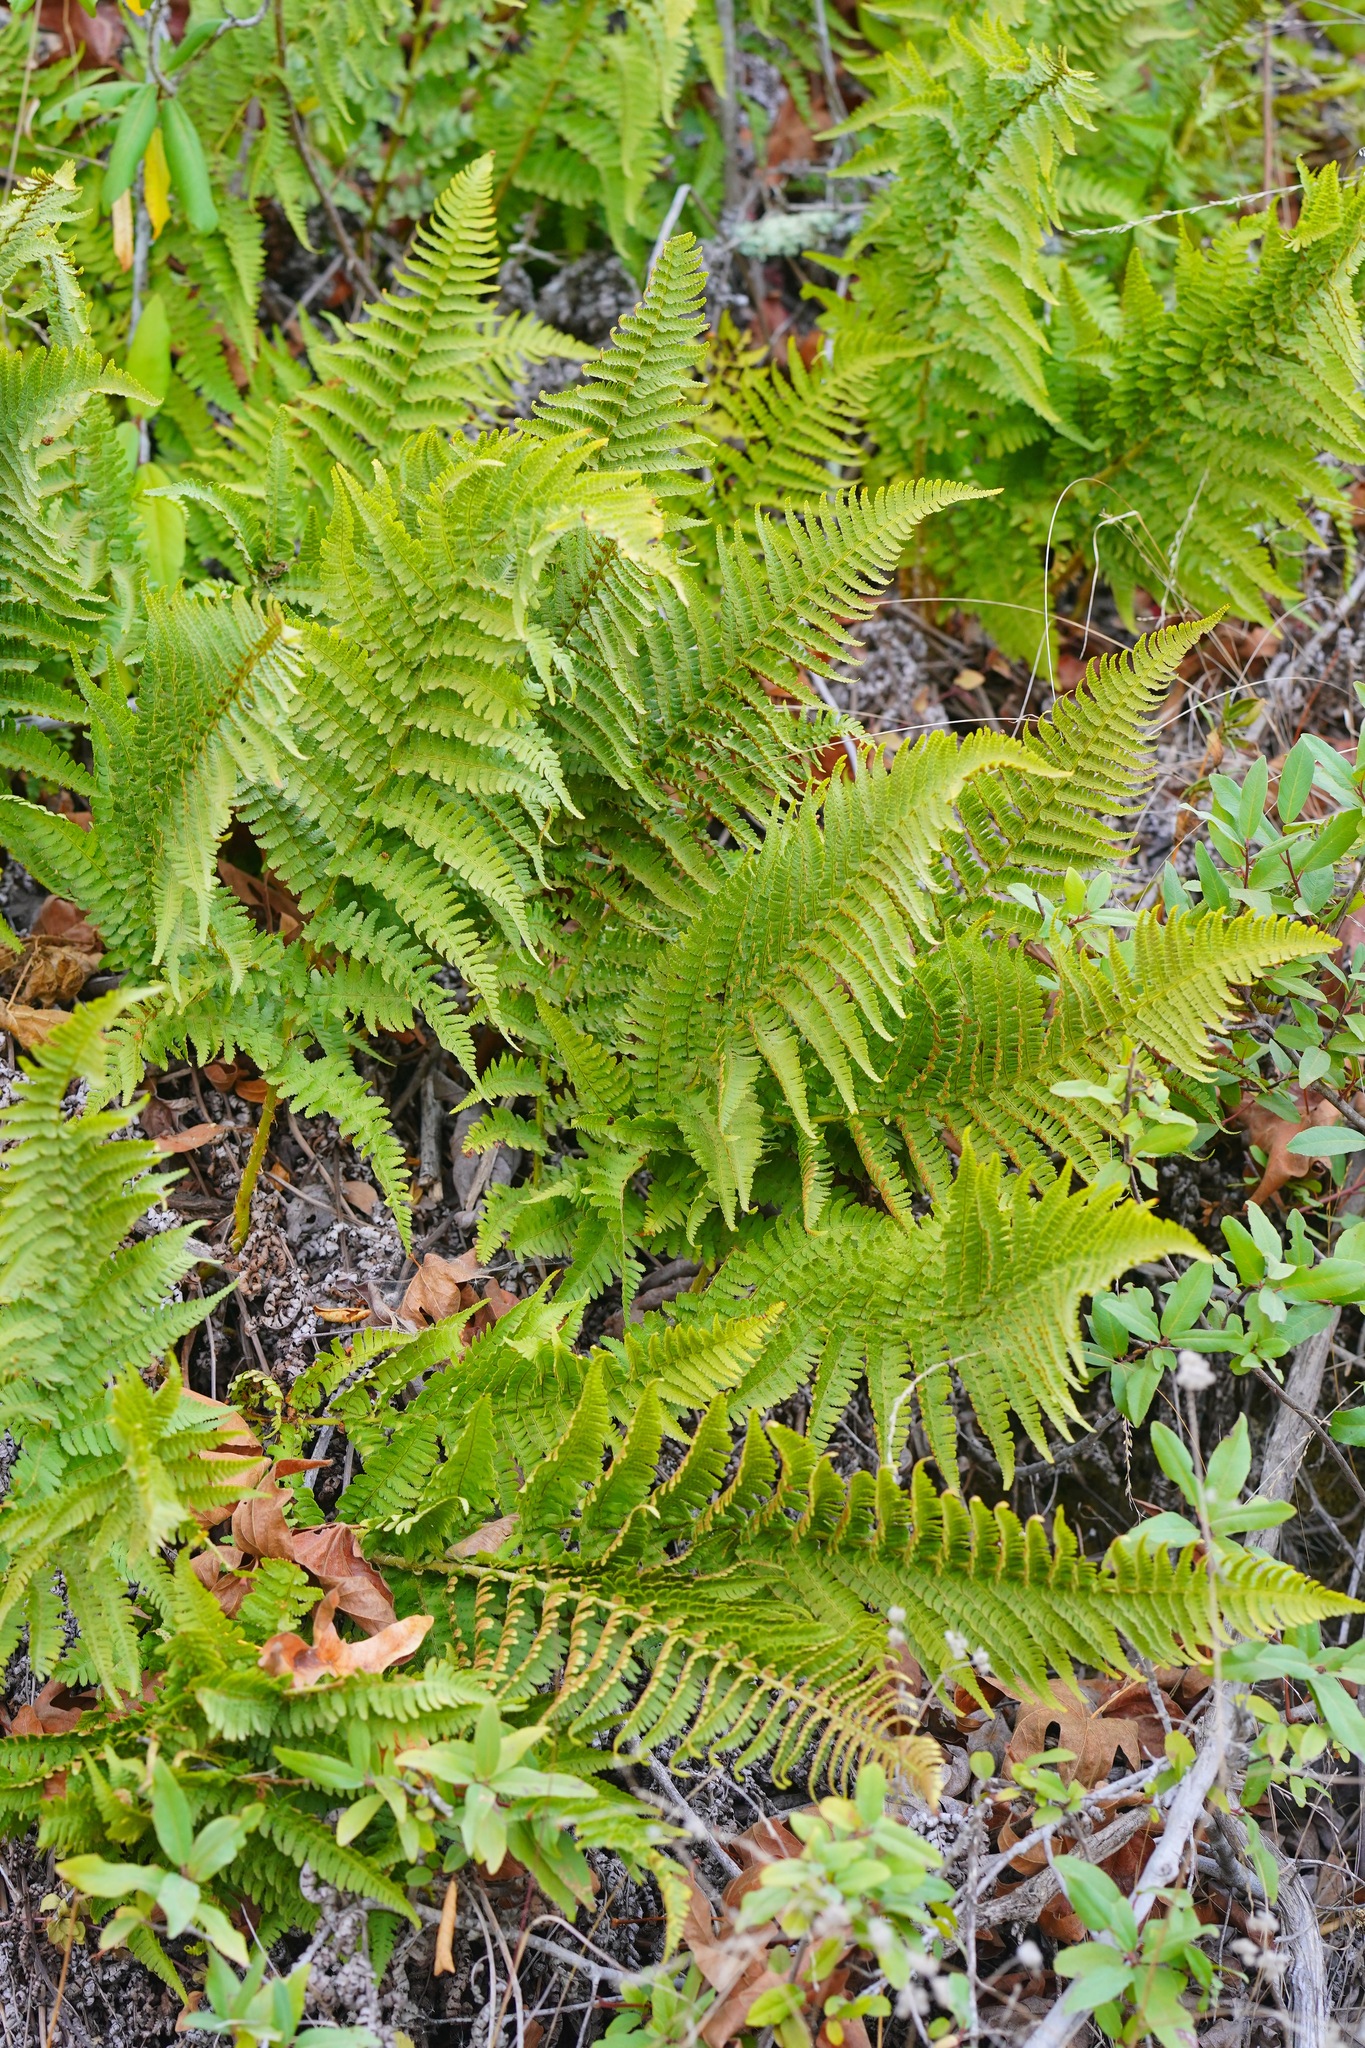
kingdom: Plantae
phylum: Tracheophyta
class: Polypodiopsida
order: Polypodiales
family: Dryopteridaceae
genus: Dryopteris
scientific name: Dryopteris arguta
